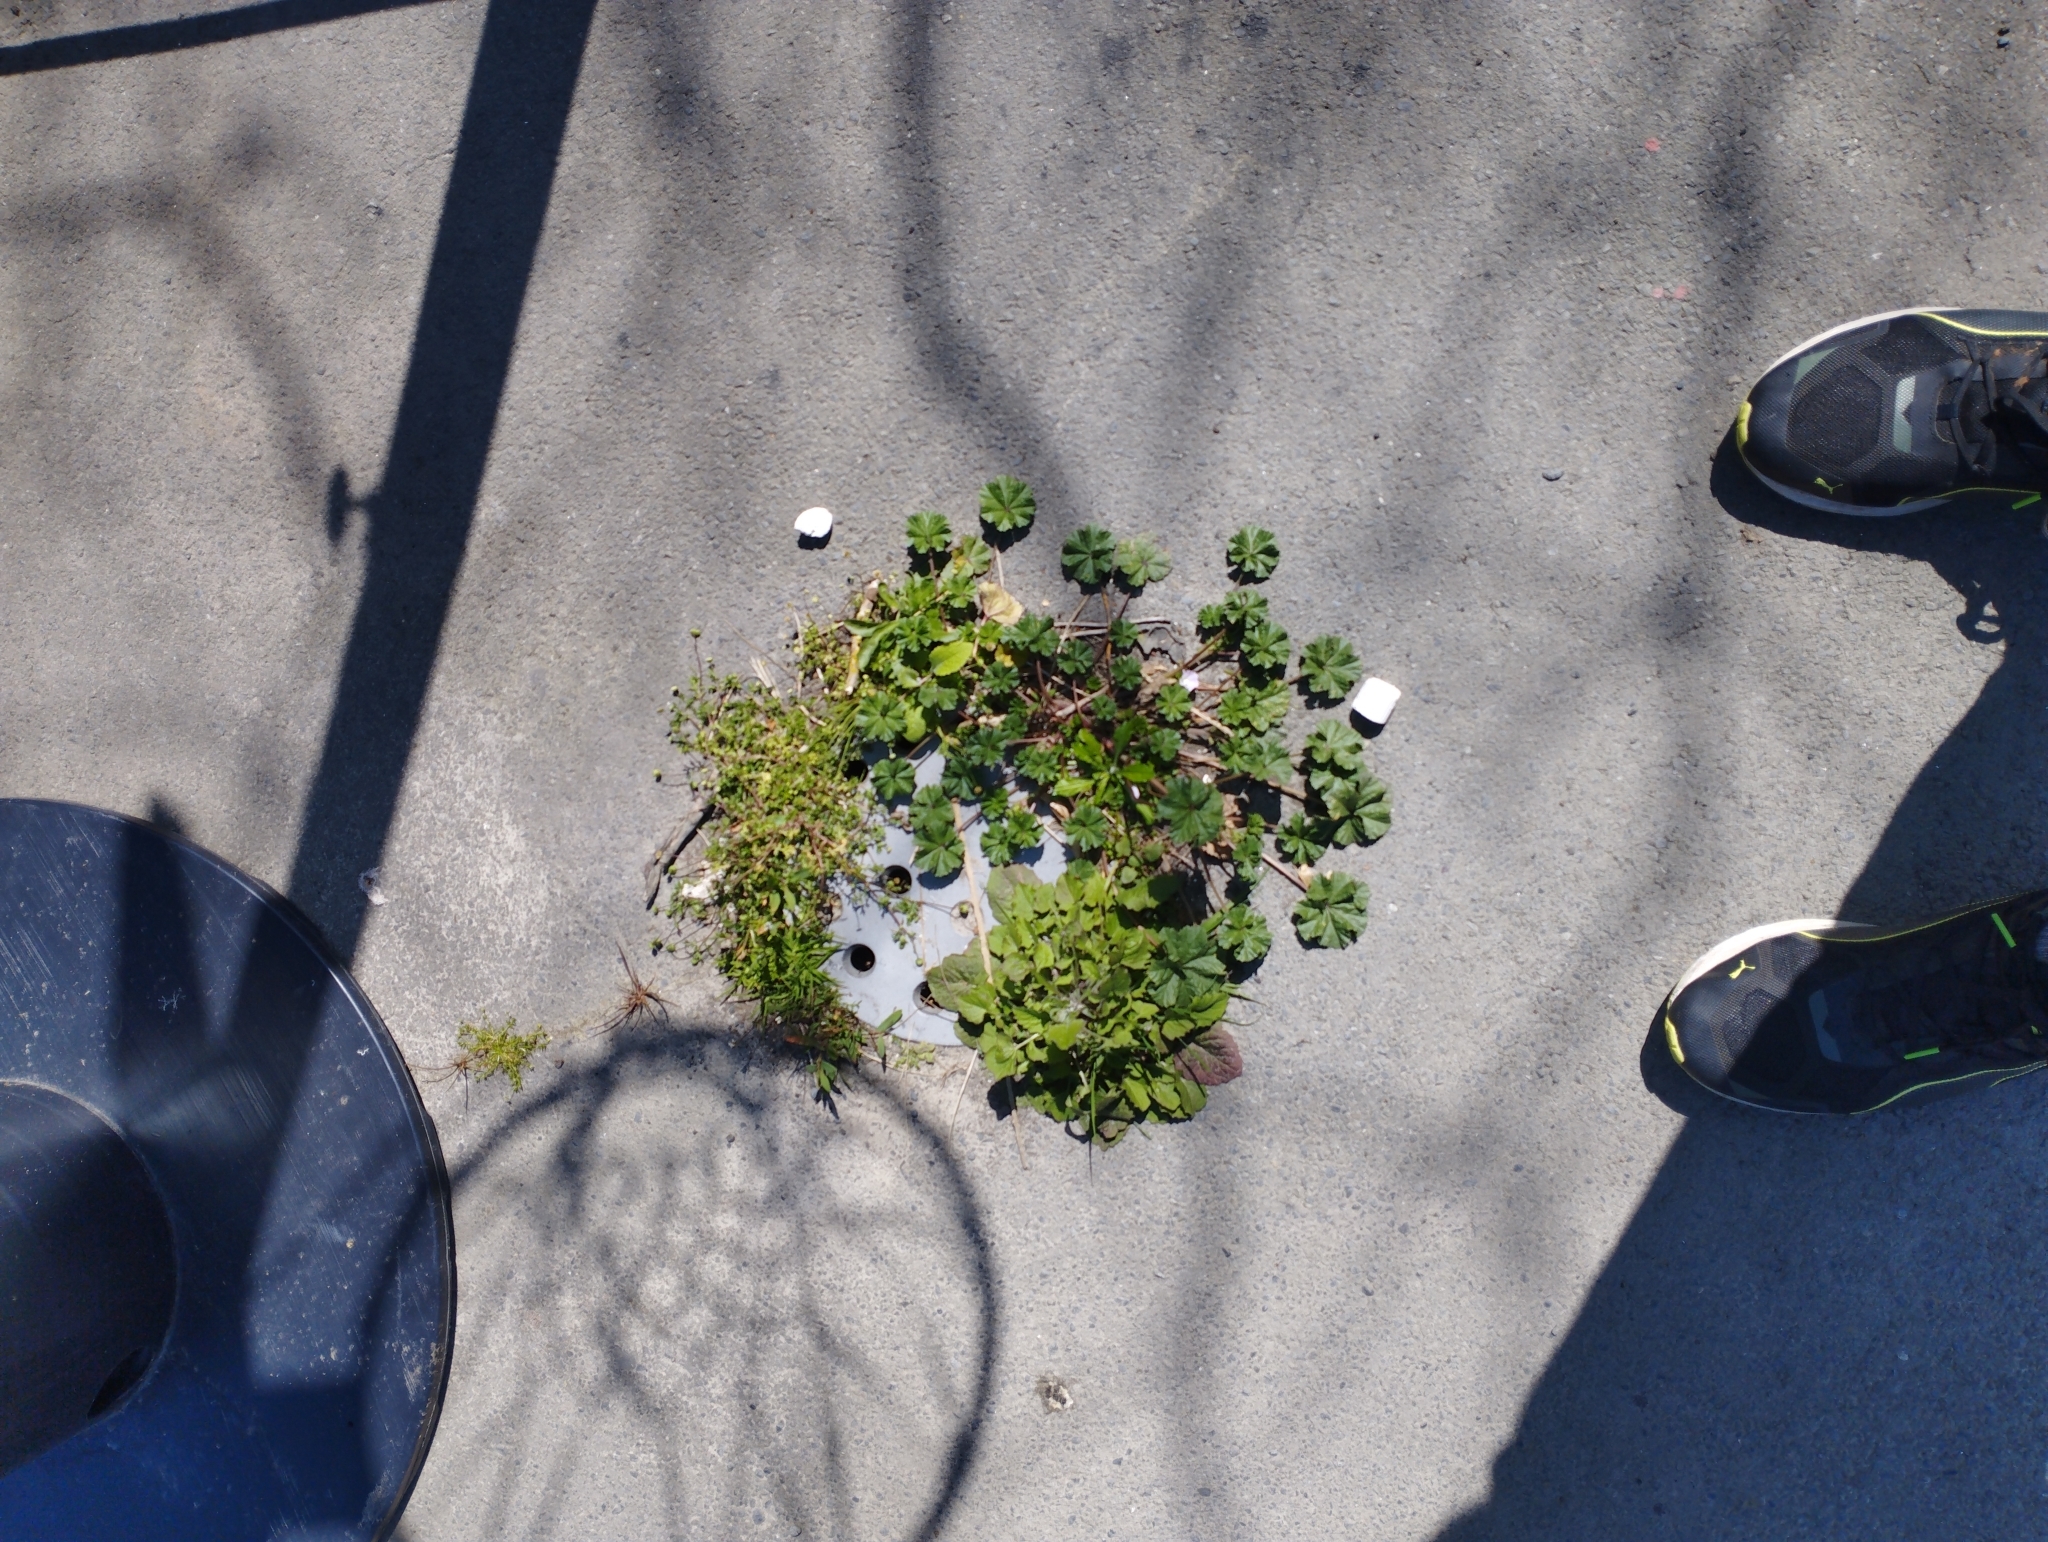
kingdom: Plantae
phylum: Tracheophyta
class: Magnoliopsida
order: Malvales
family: Malvaceae
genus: Malva
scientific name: Malva neglecta
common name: Common mallow
